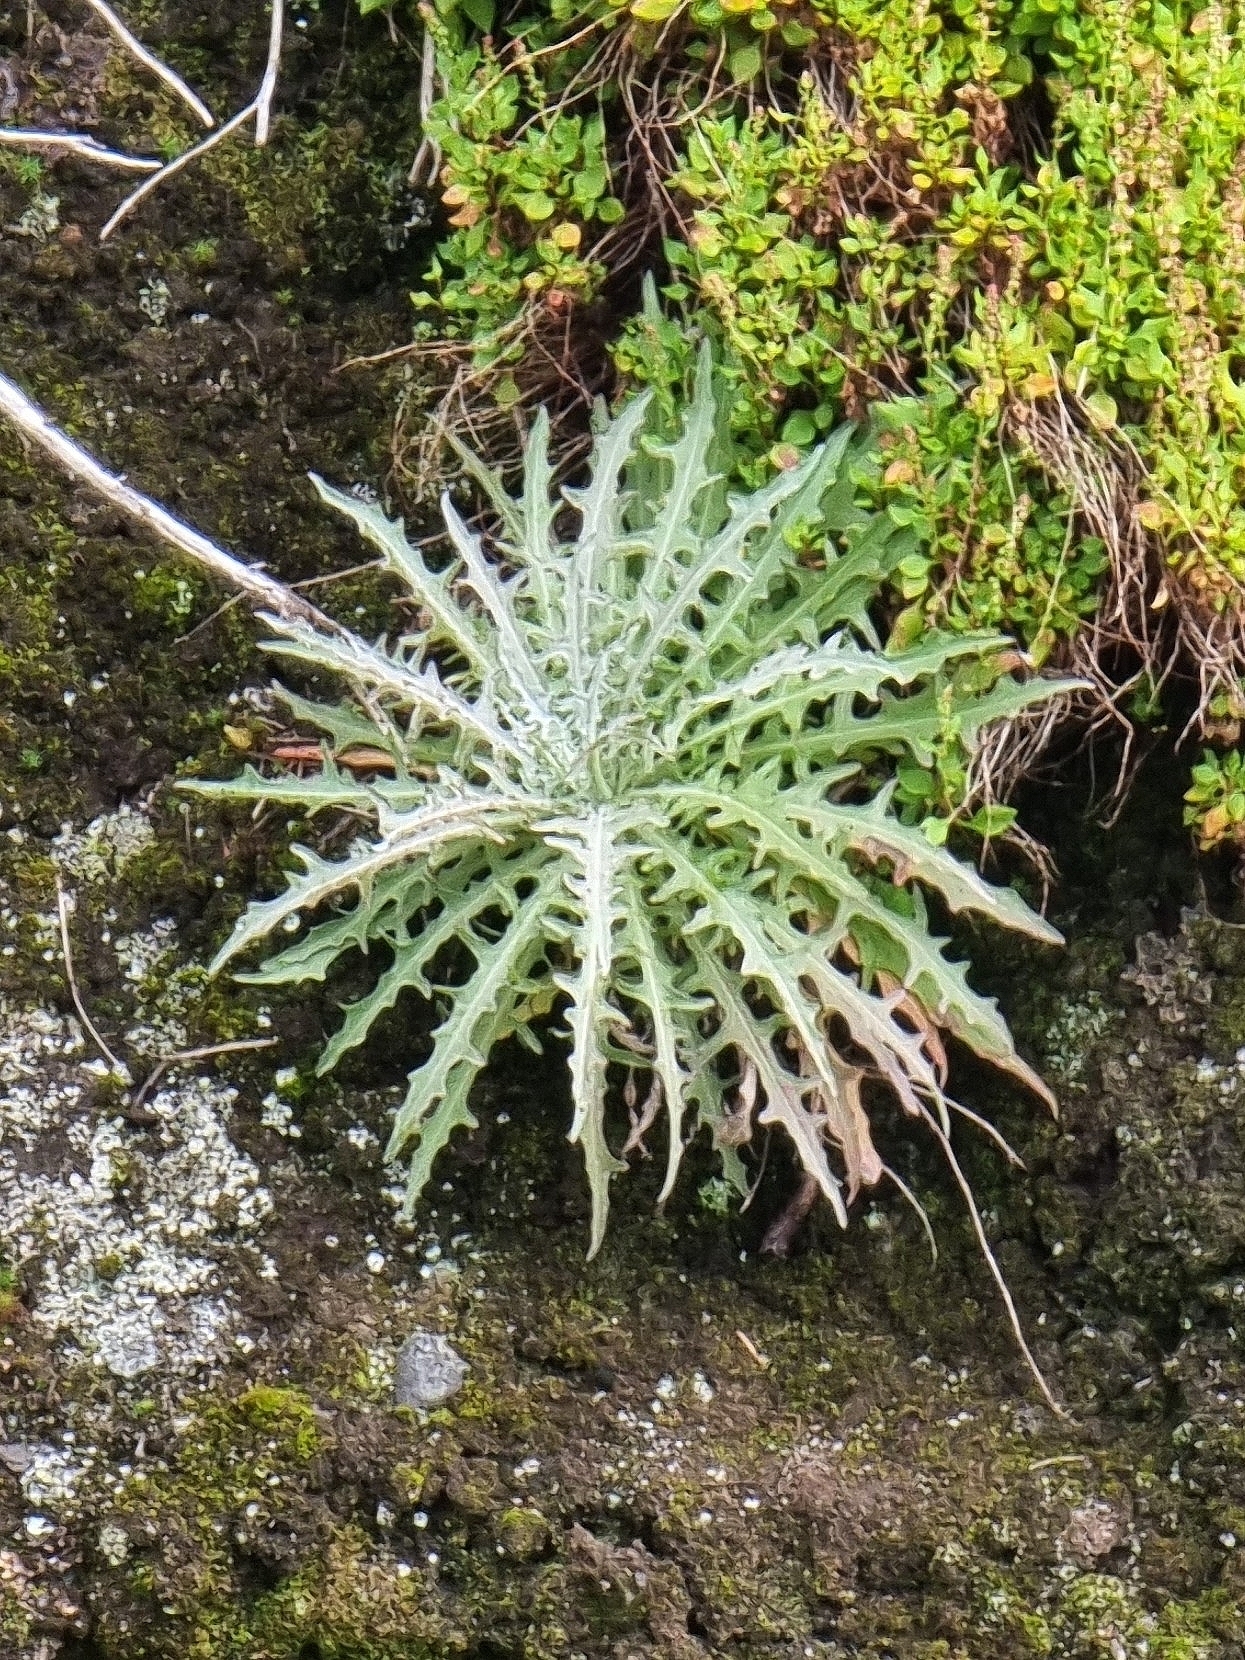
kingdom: Plantae
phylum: Tracheophyta
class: Magnoliopsida
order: Asterales
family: Asteraceae
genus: Andryala
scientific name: Andryala glandulosa
